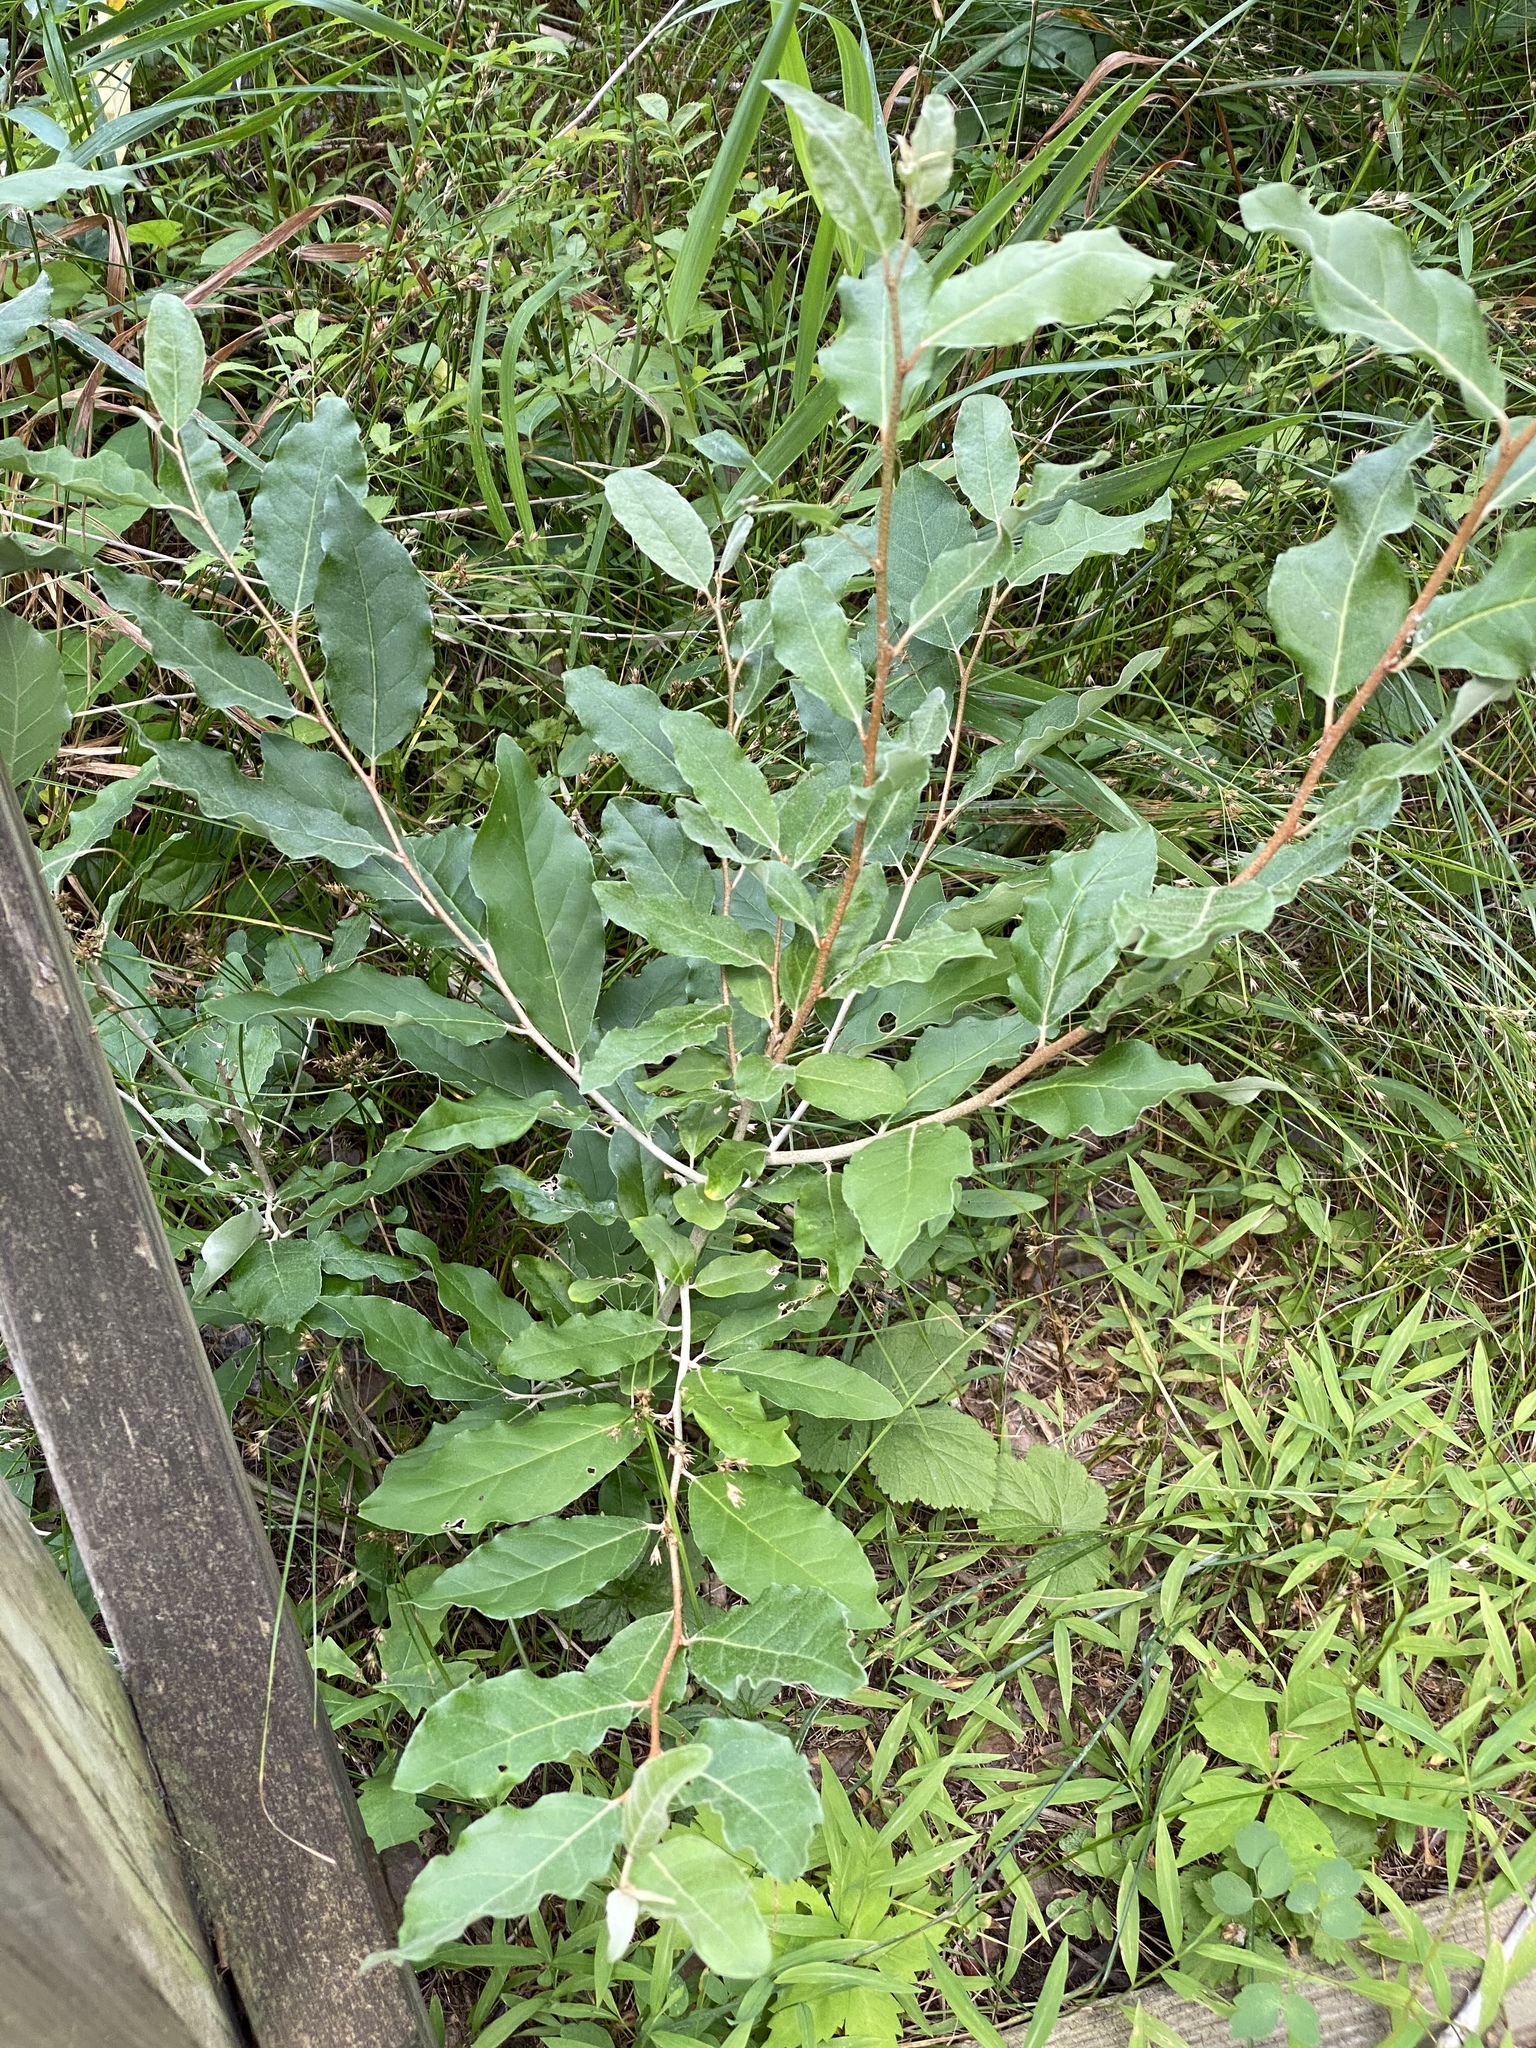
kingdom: Plantae
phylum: Tracheophyta
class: Magnoliopsida
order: Rosales
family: Elaeagnaceae
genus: Elaeagnus
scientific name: Elaeagnus umbellata
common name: Autumn olive
